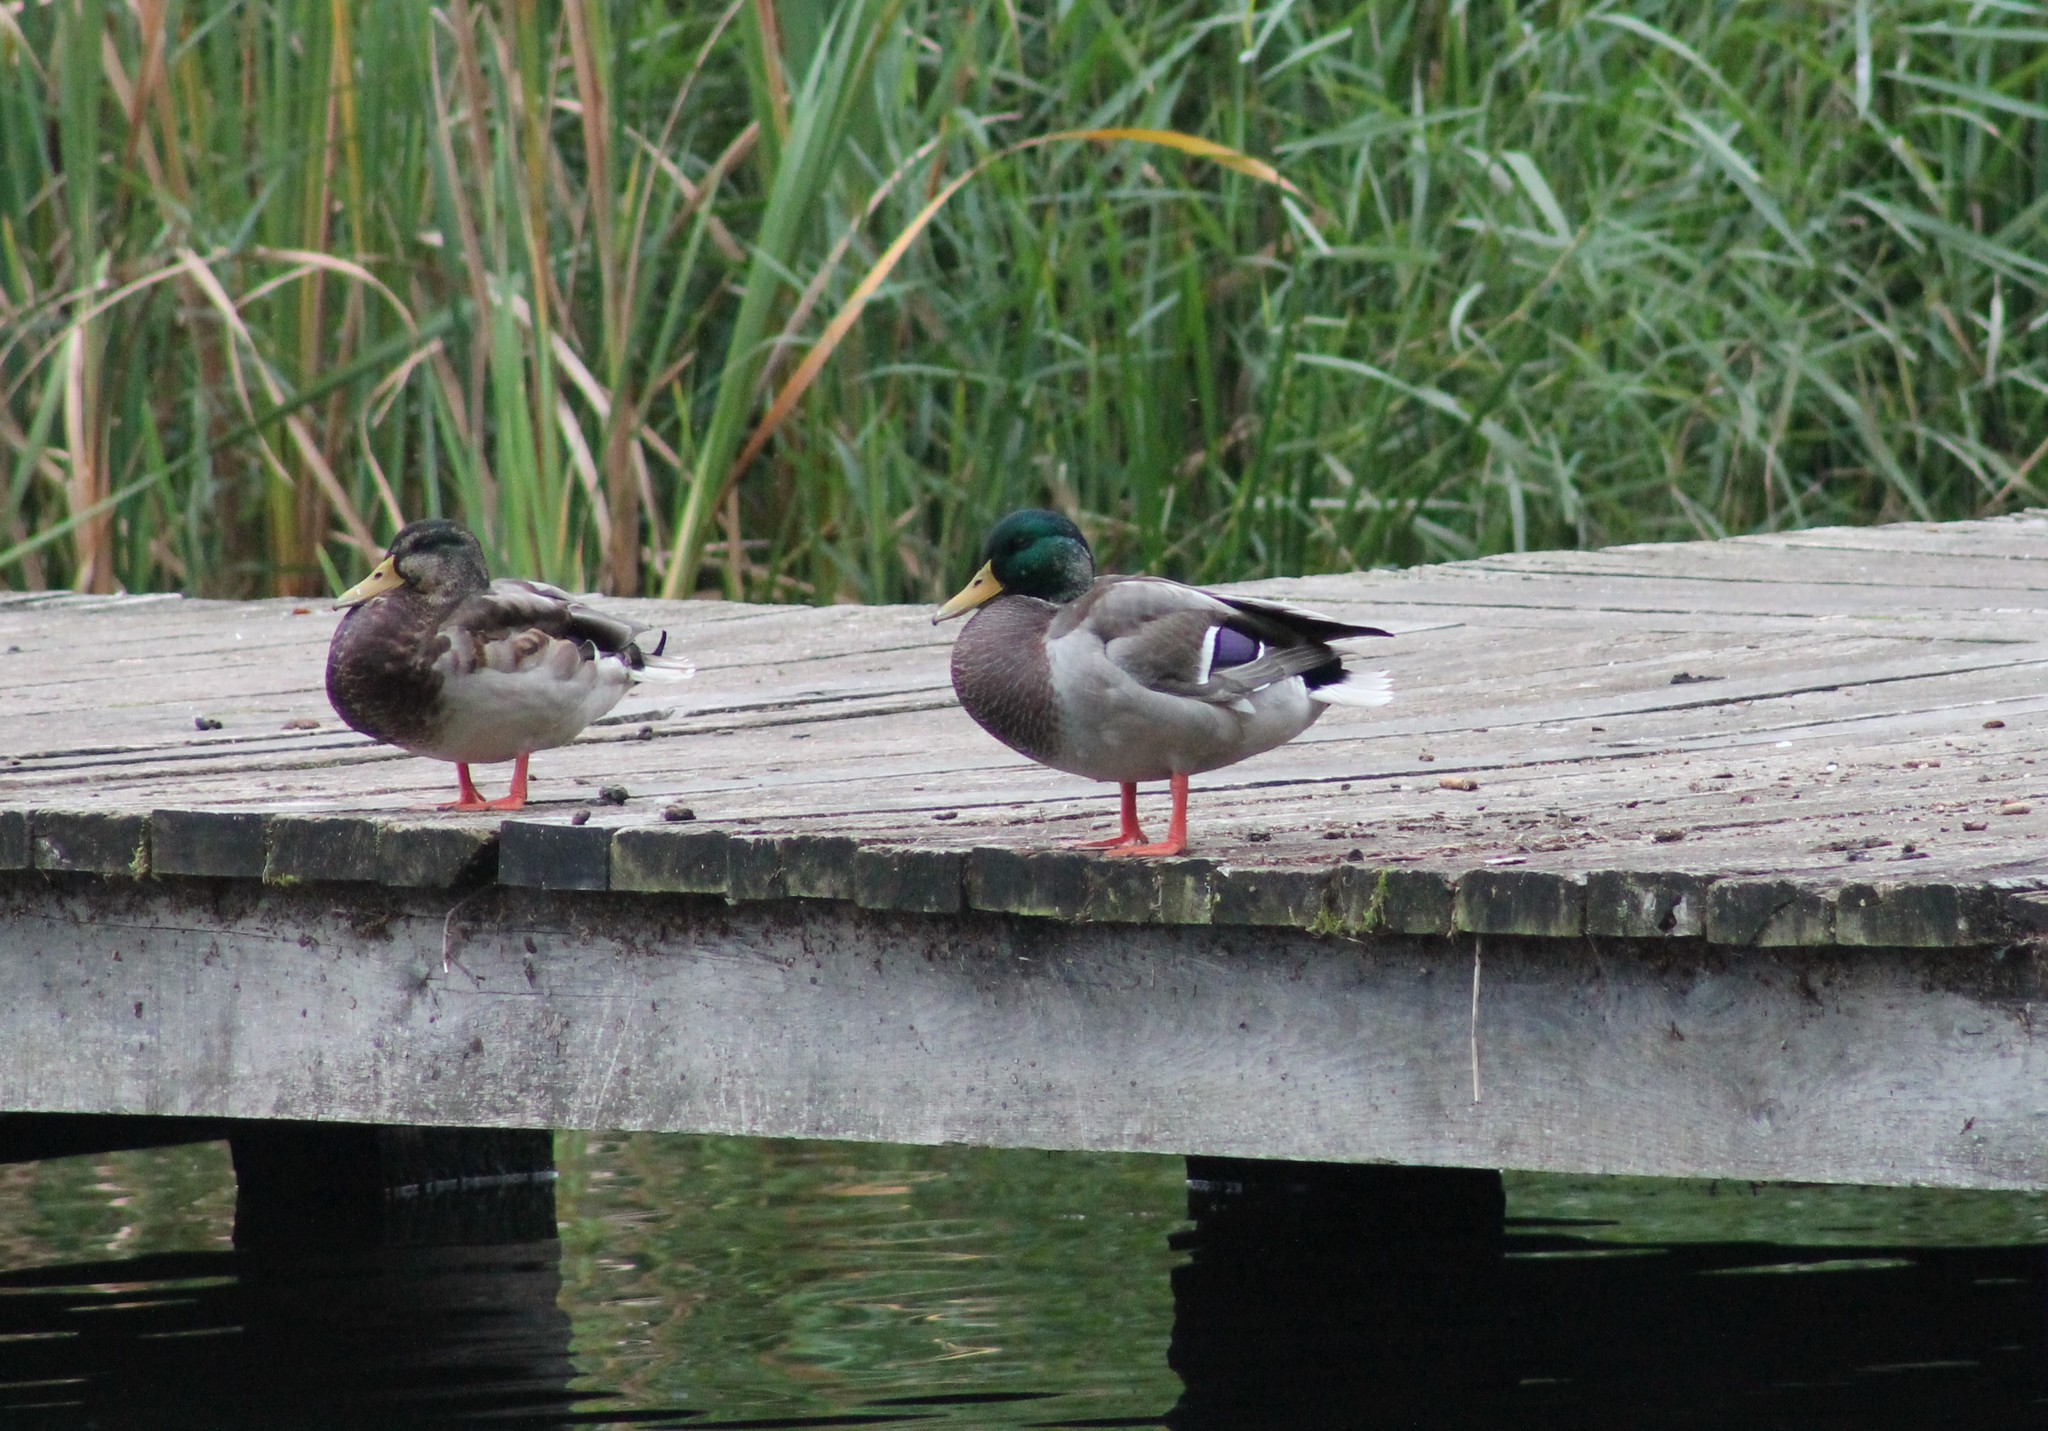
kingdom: Animalia
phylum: Chordata
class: Aves
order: Anseriformes
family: Anatidae
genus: Anas
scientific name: Anas platyrhynchos
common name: Mallard
